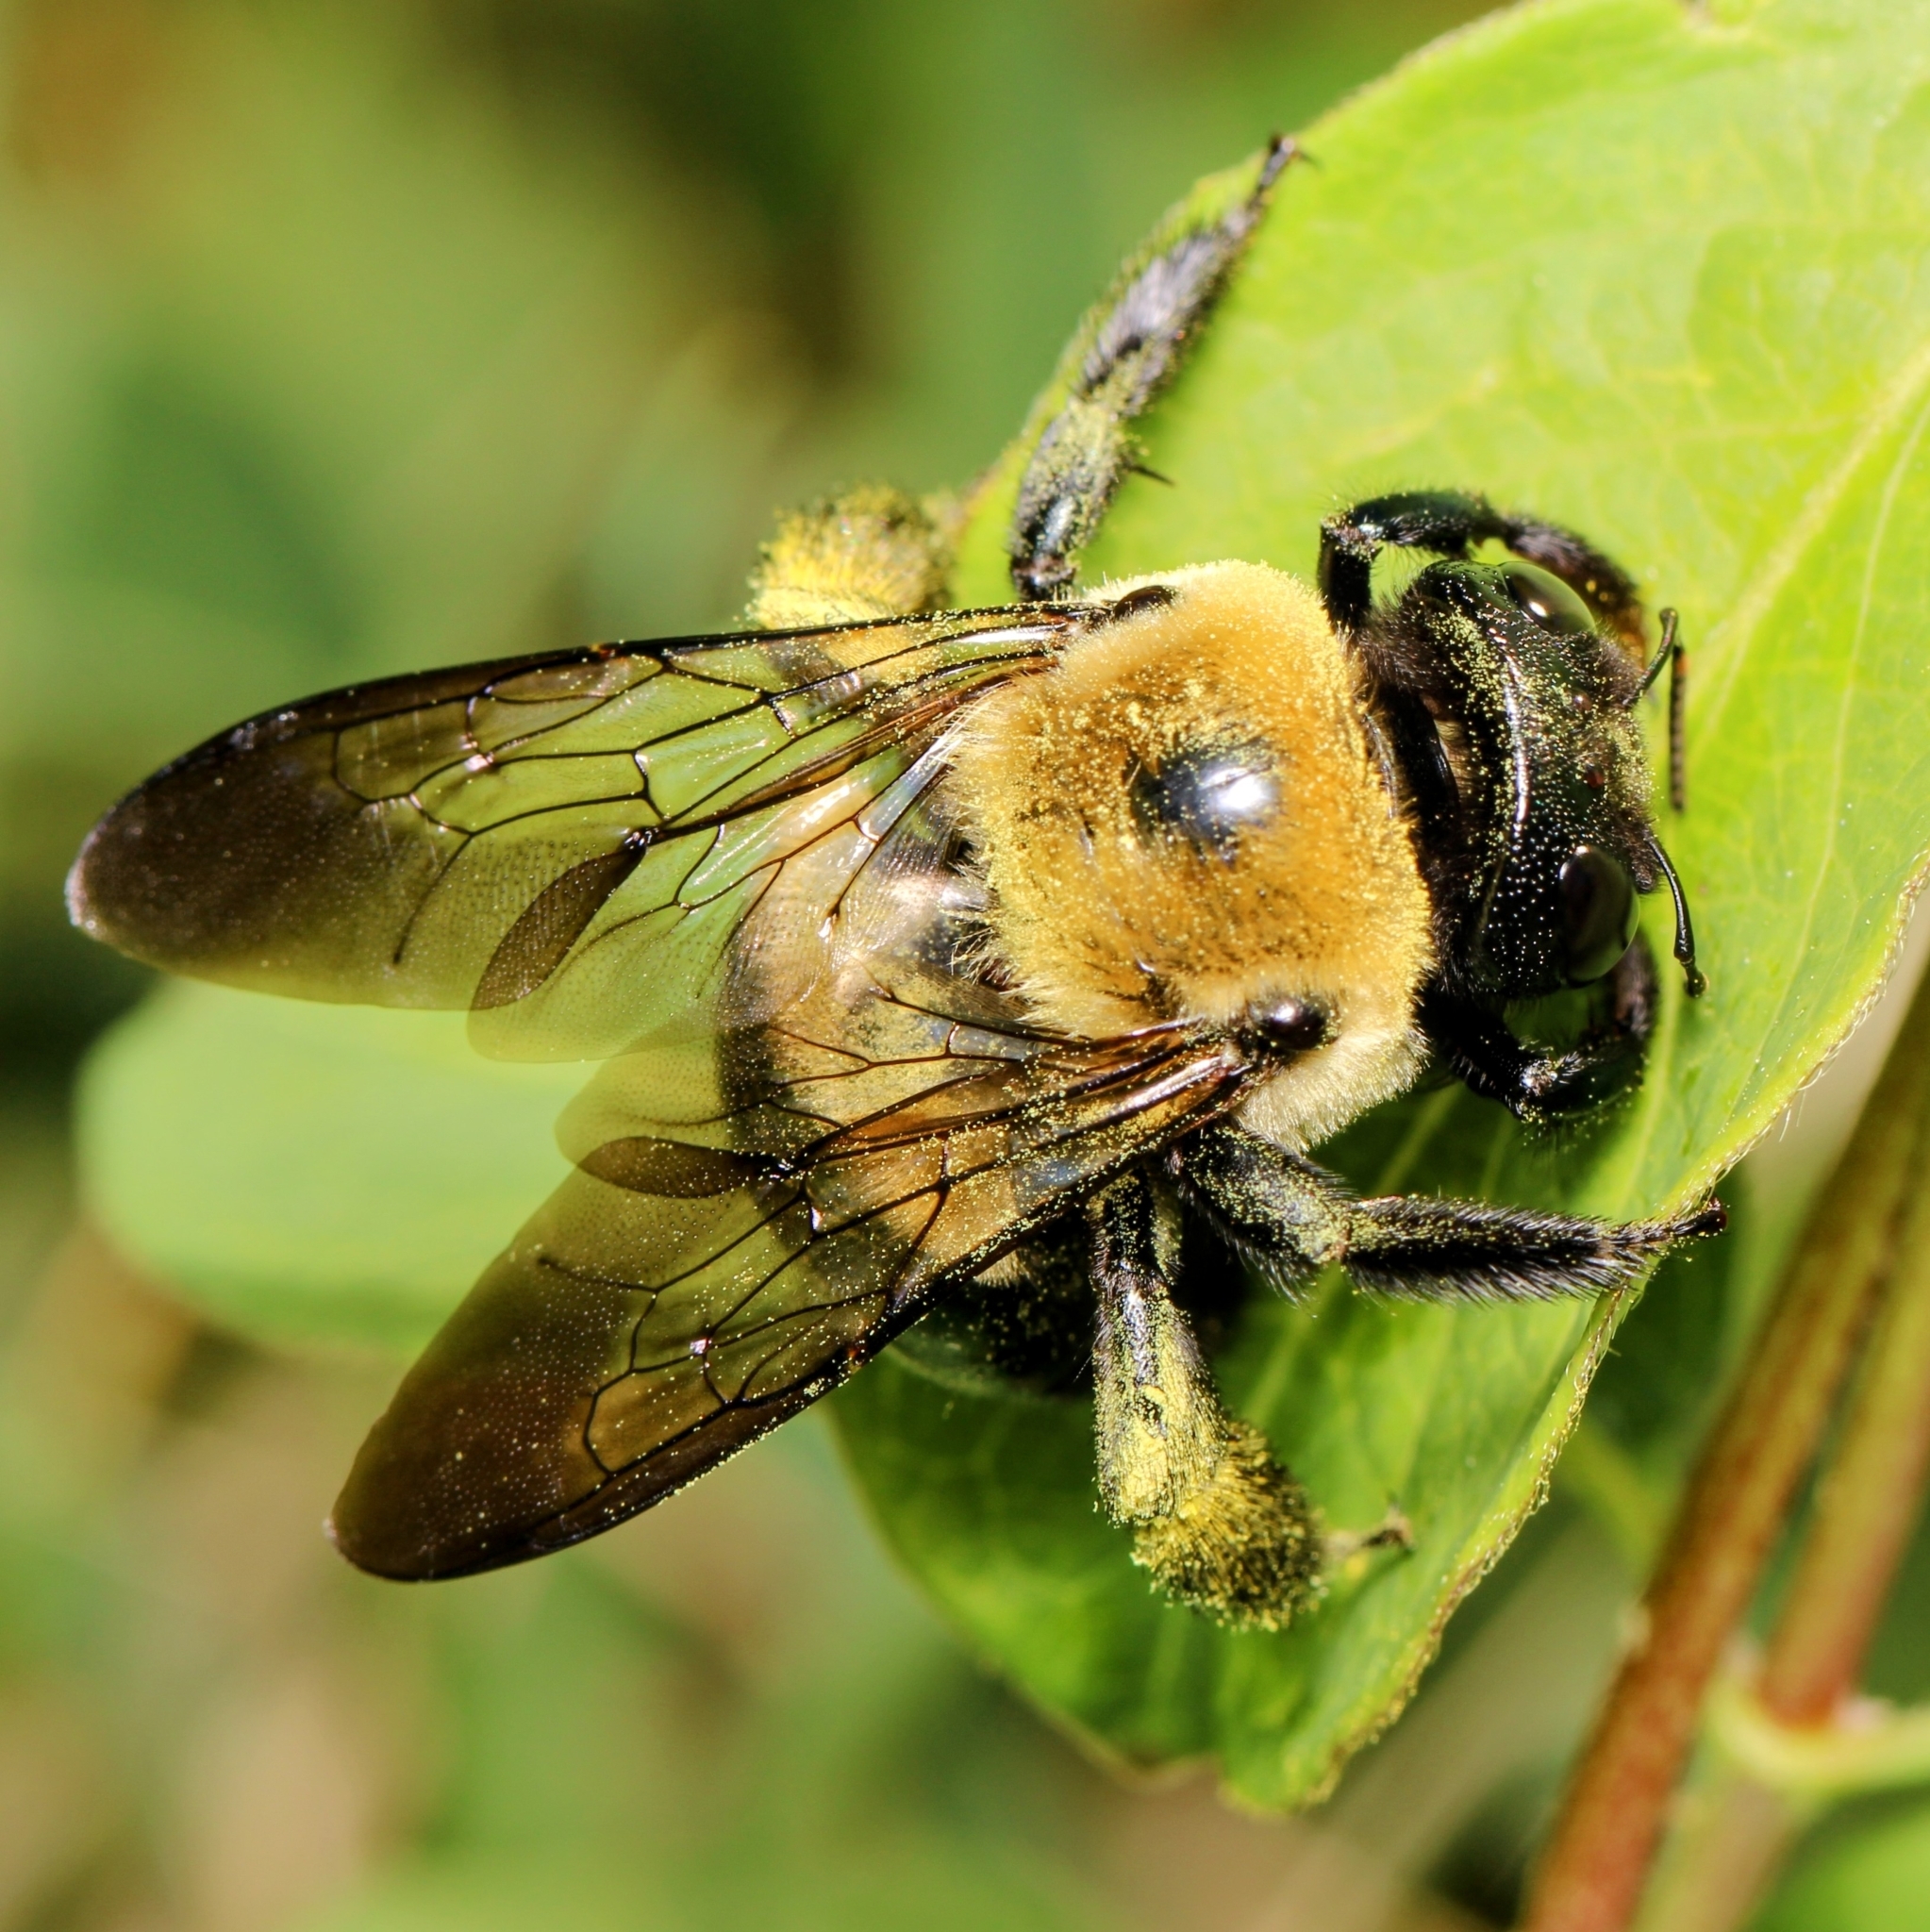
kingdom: Animalia
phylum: Arthropoda
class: Insecta
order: Hymenoptera
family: Apidae
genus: Xylocopa
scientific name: Xylocopa virginica
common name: Carpenter bee
